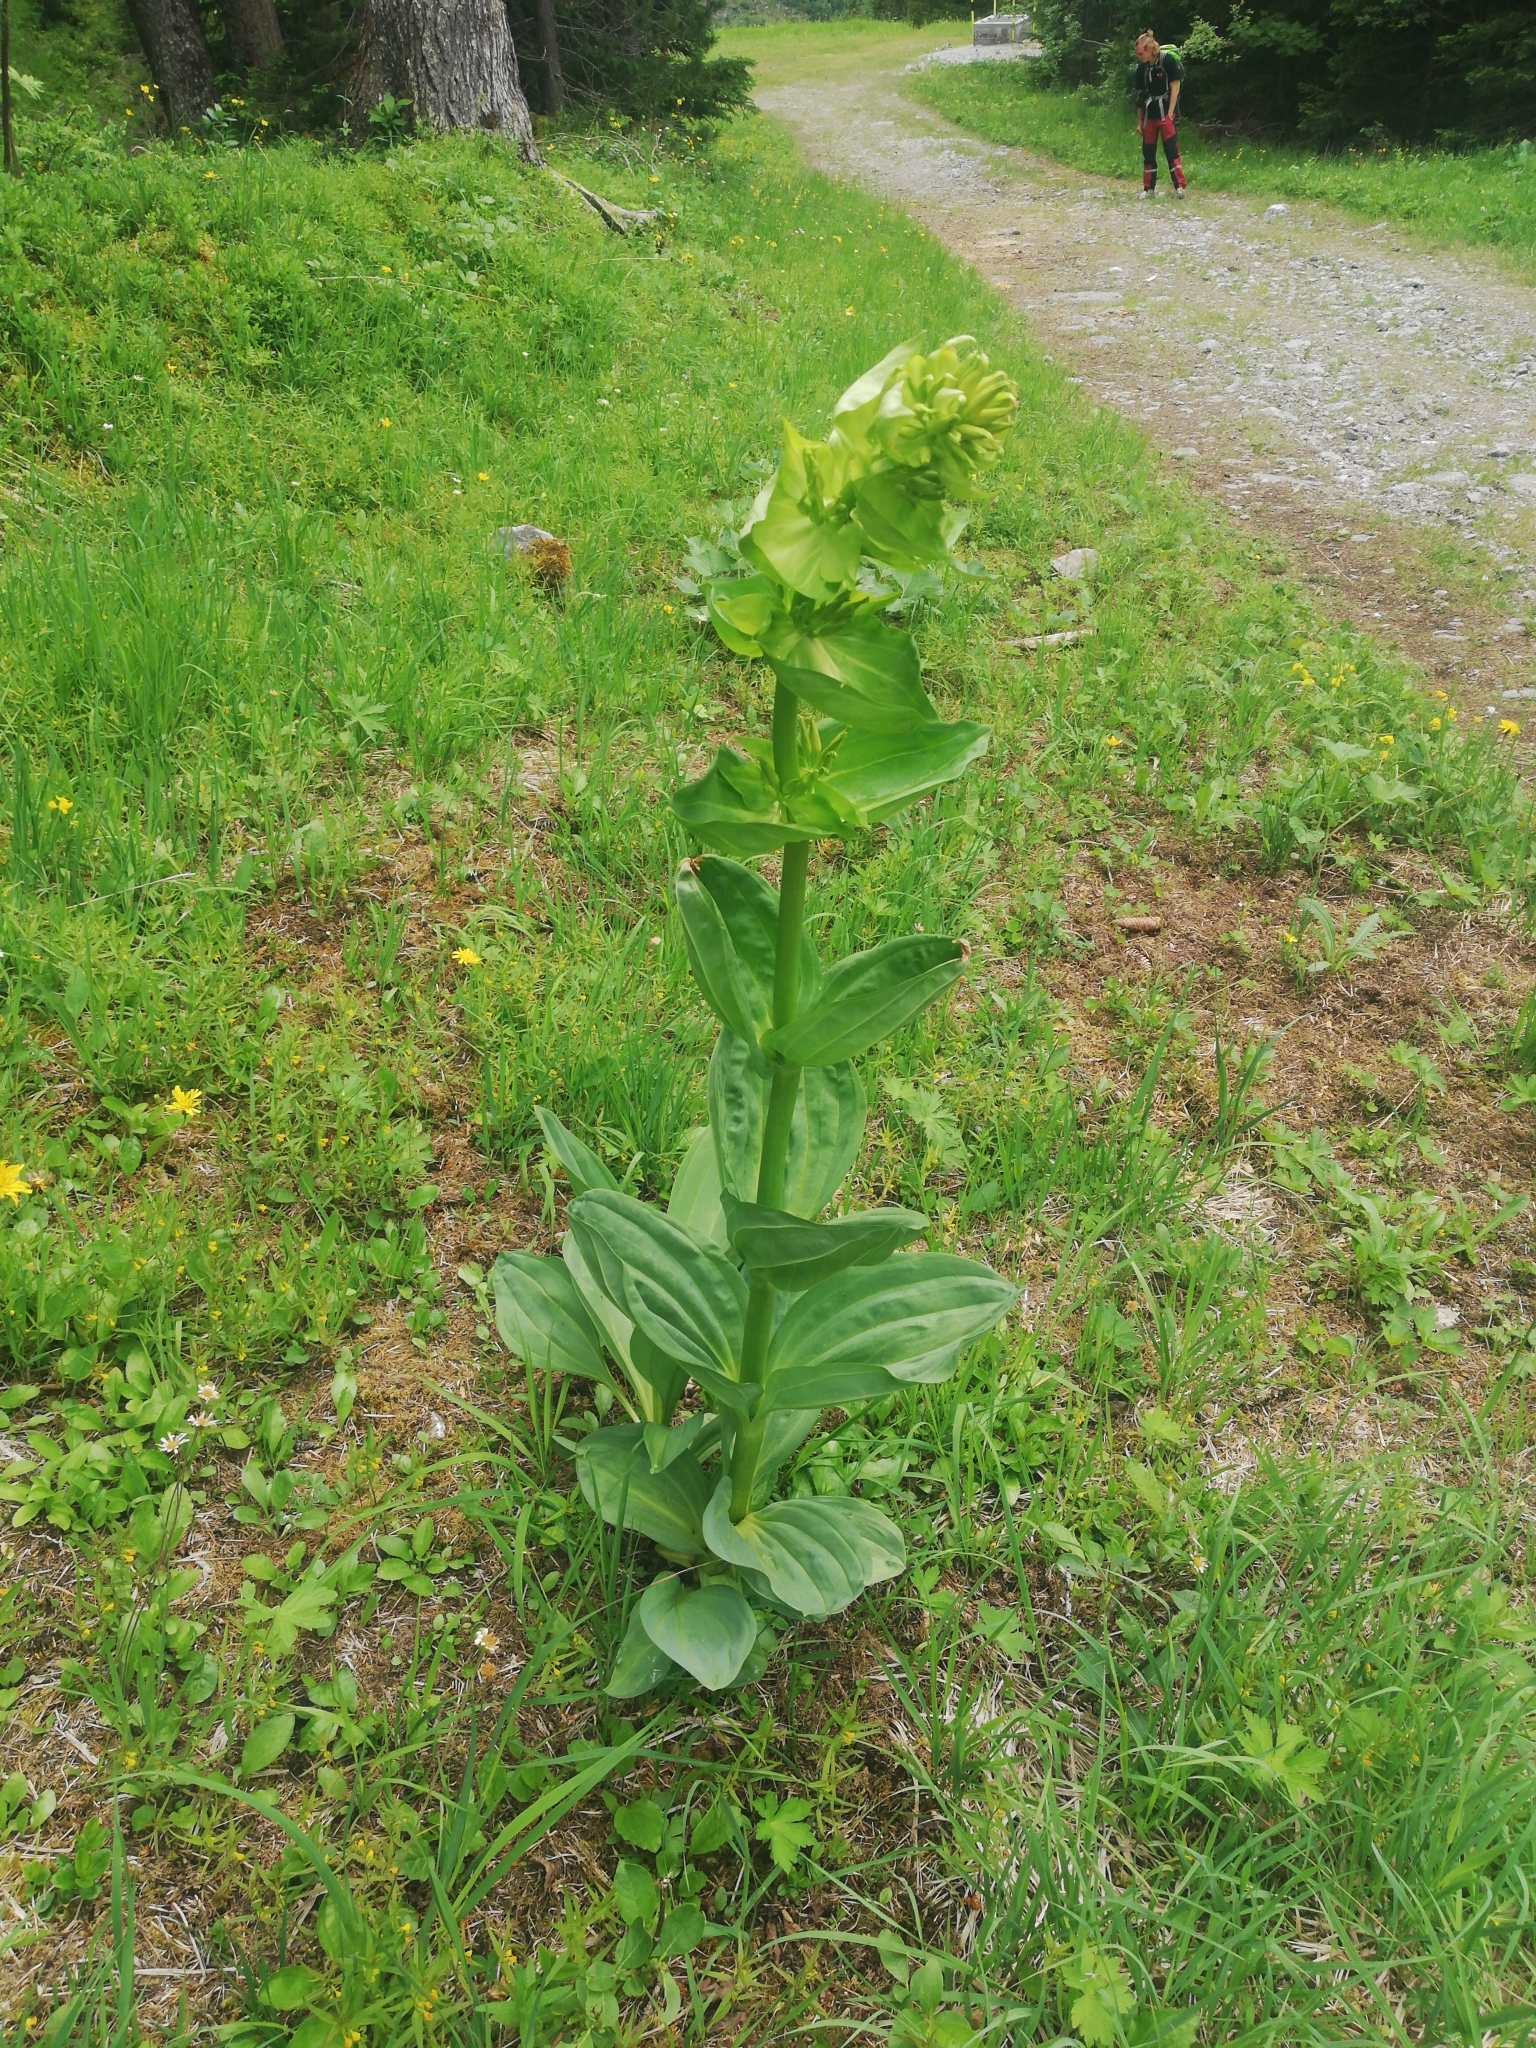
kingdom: Plantae
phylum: Tracheophyta
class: Magnoliopsida
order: Gentianales
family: Gentianaceae
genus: Gentiana
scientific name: Gentiana lutea
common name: Great yellow gentian
